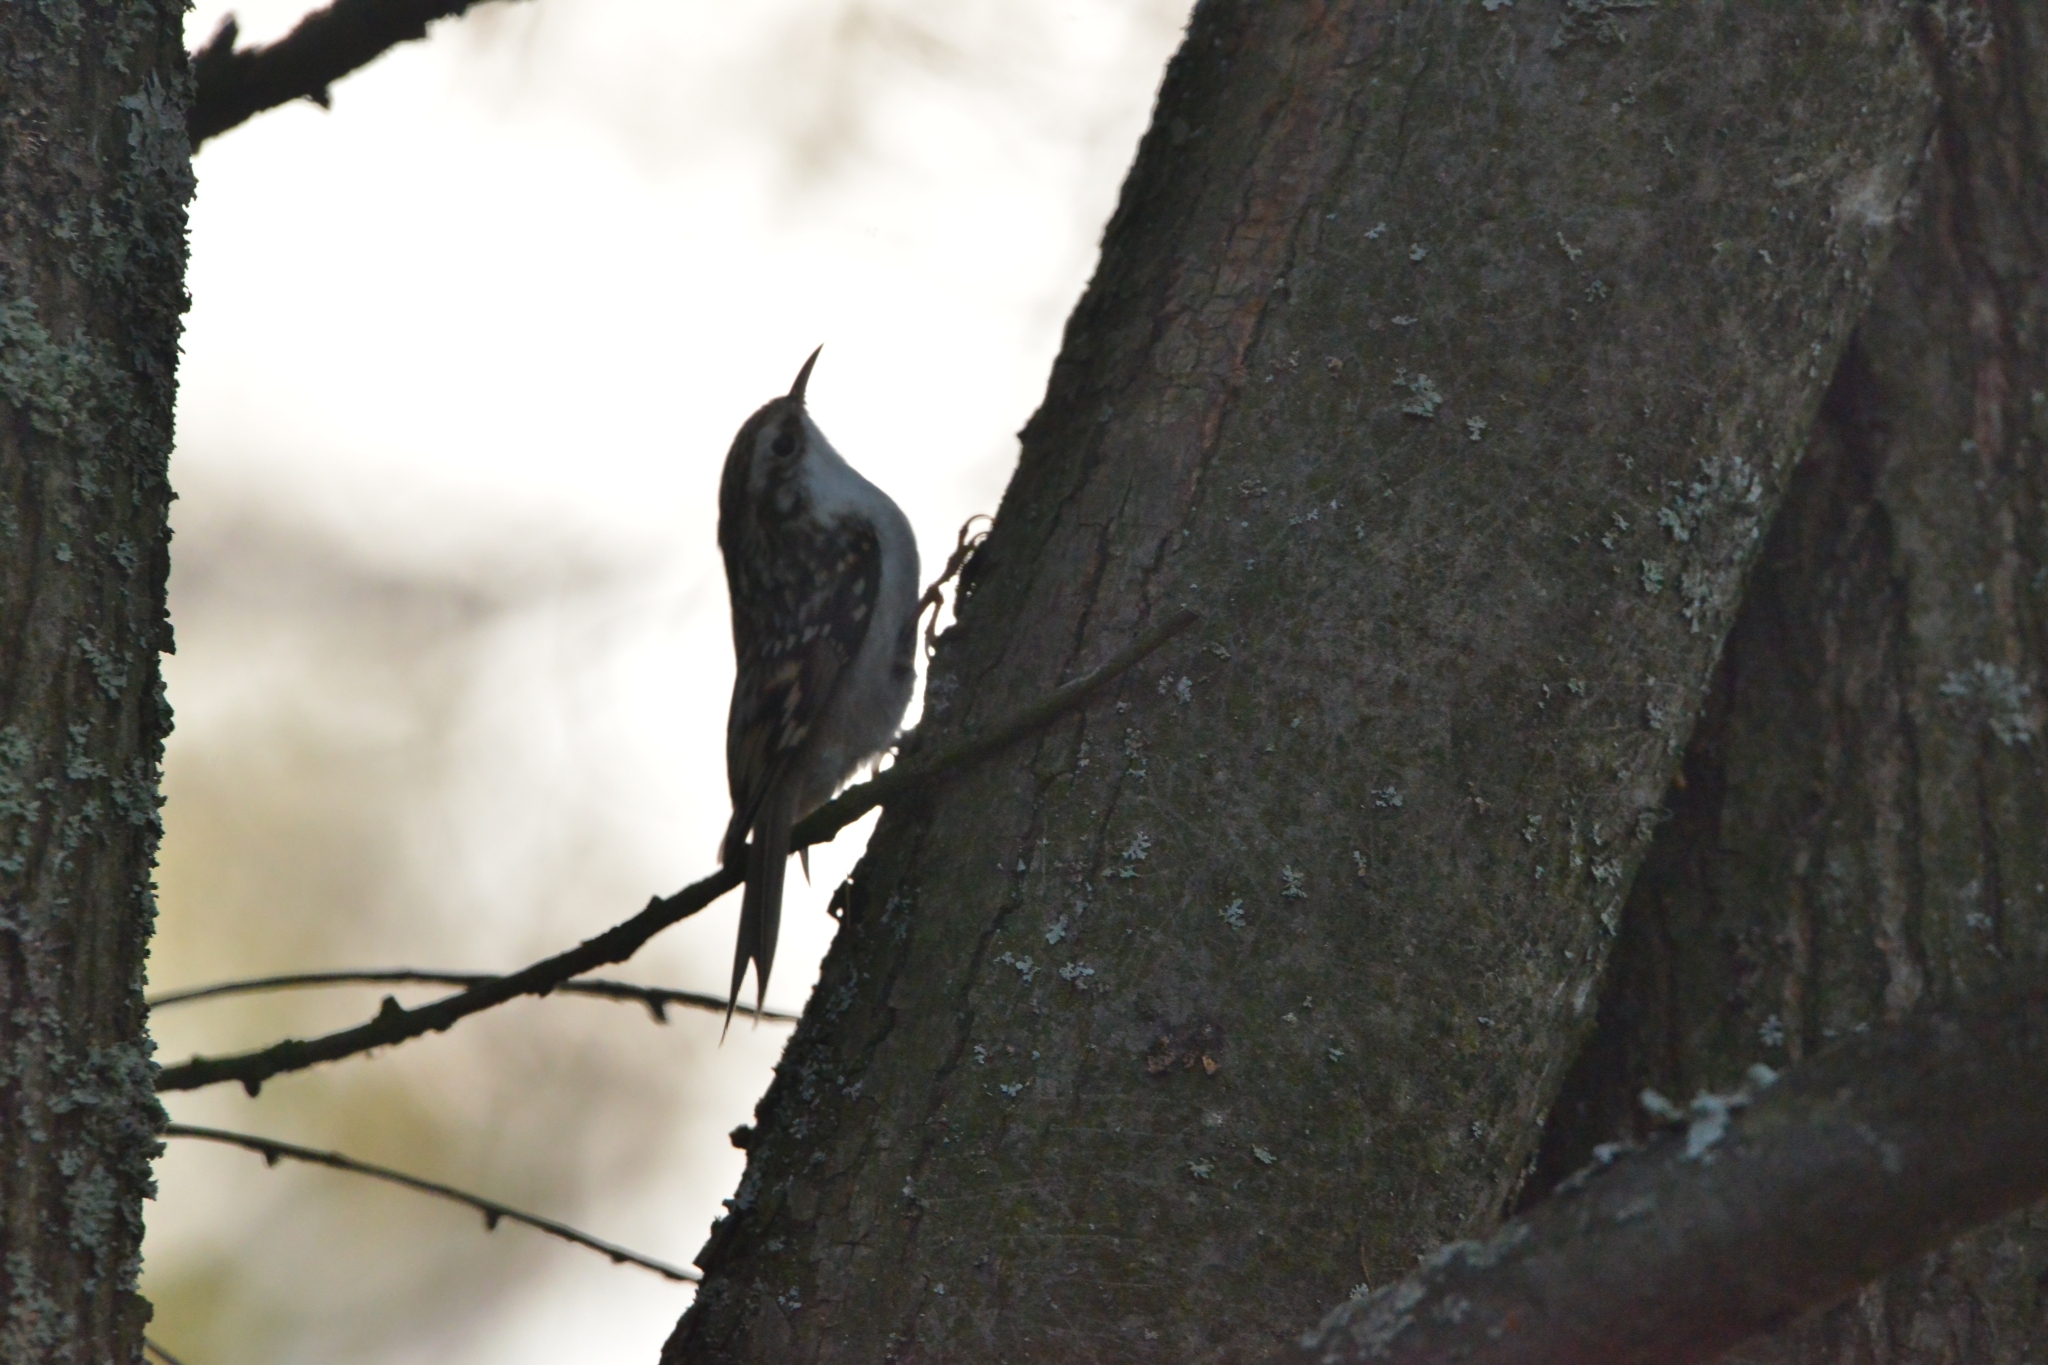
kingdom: Animalia
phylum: Chordata
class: Aves
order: Passeriformes
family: Certhiidae
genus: Certhia
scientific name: Certhia familiaris
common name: Eurasian treecreeper
